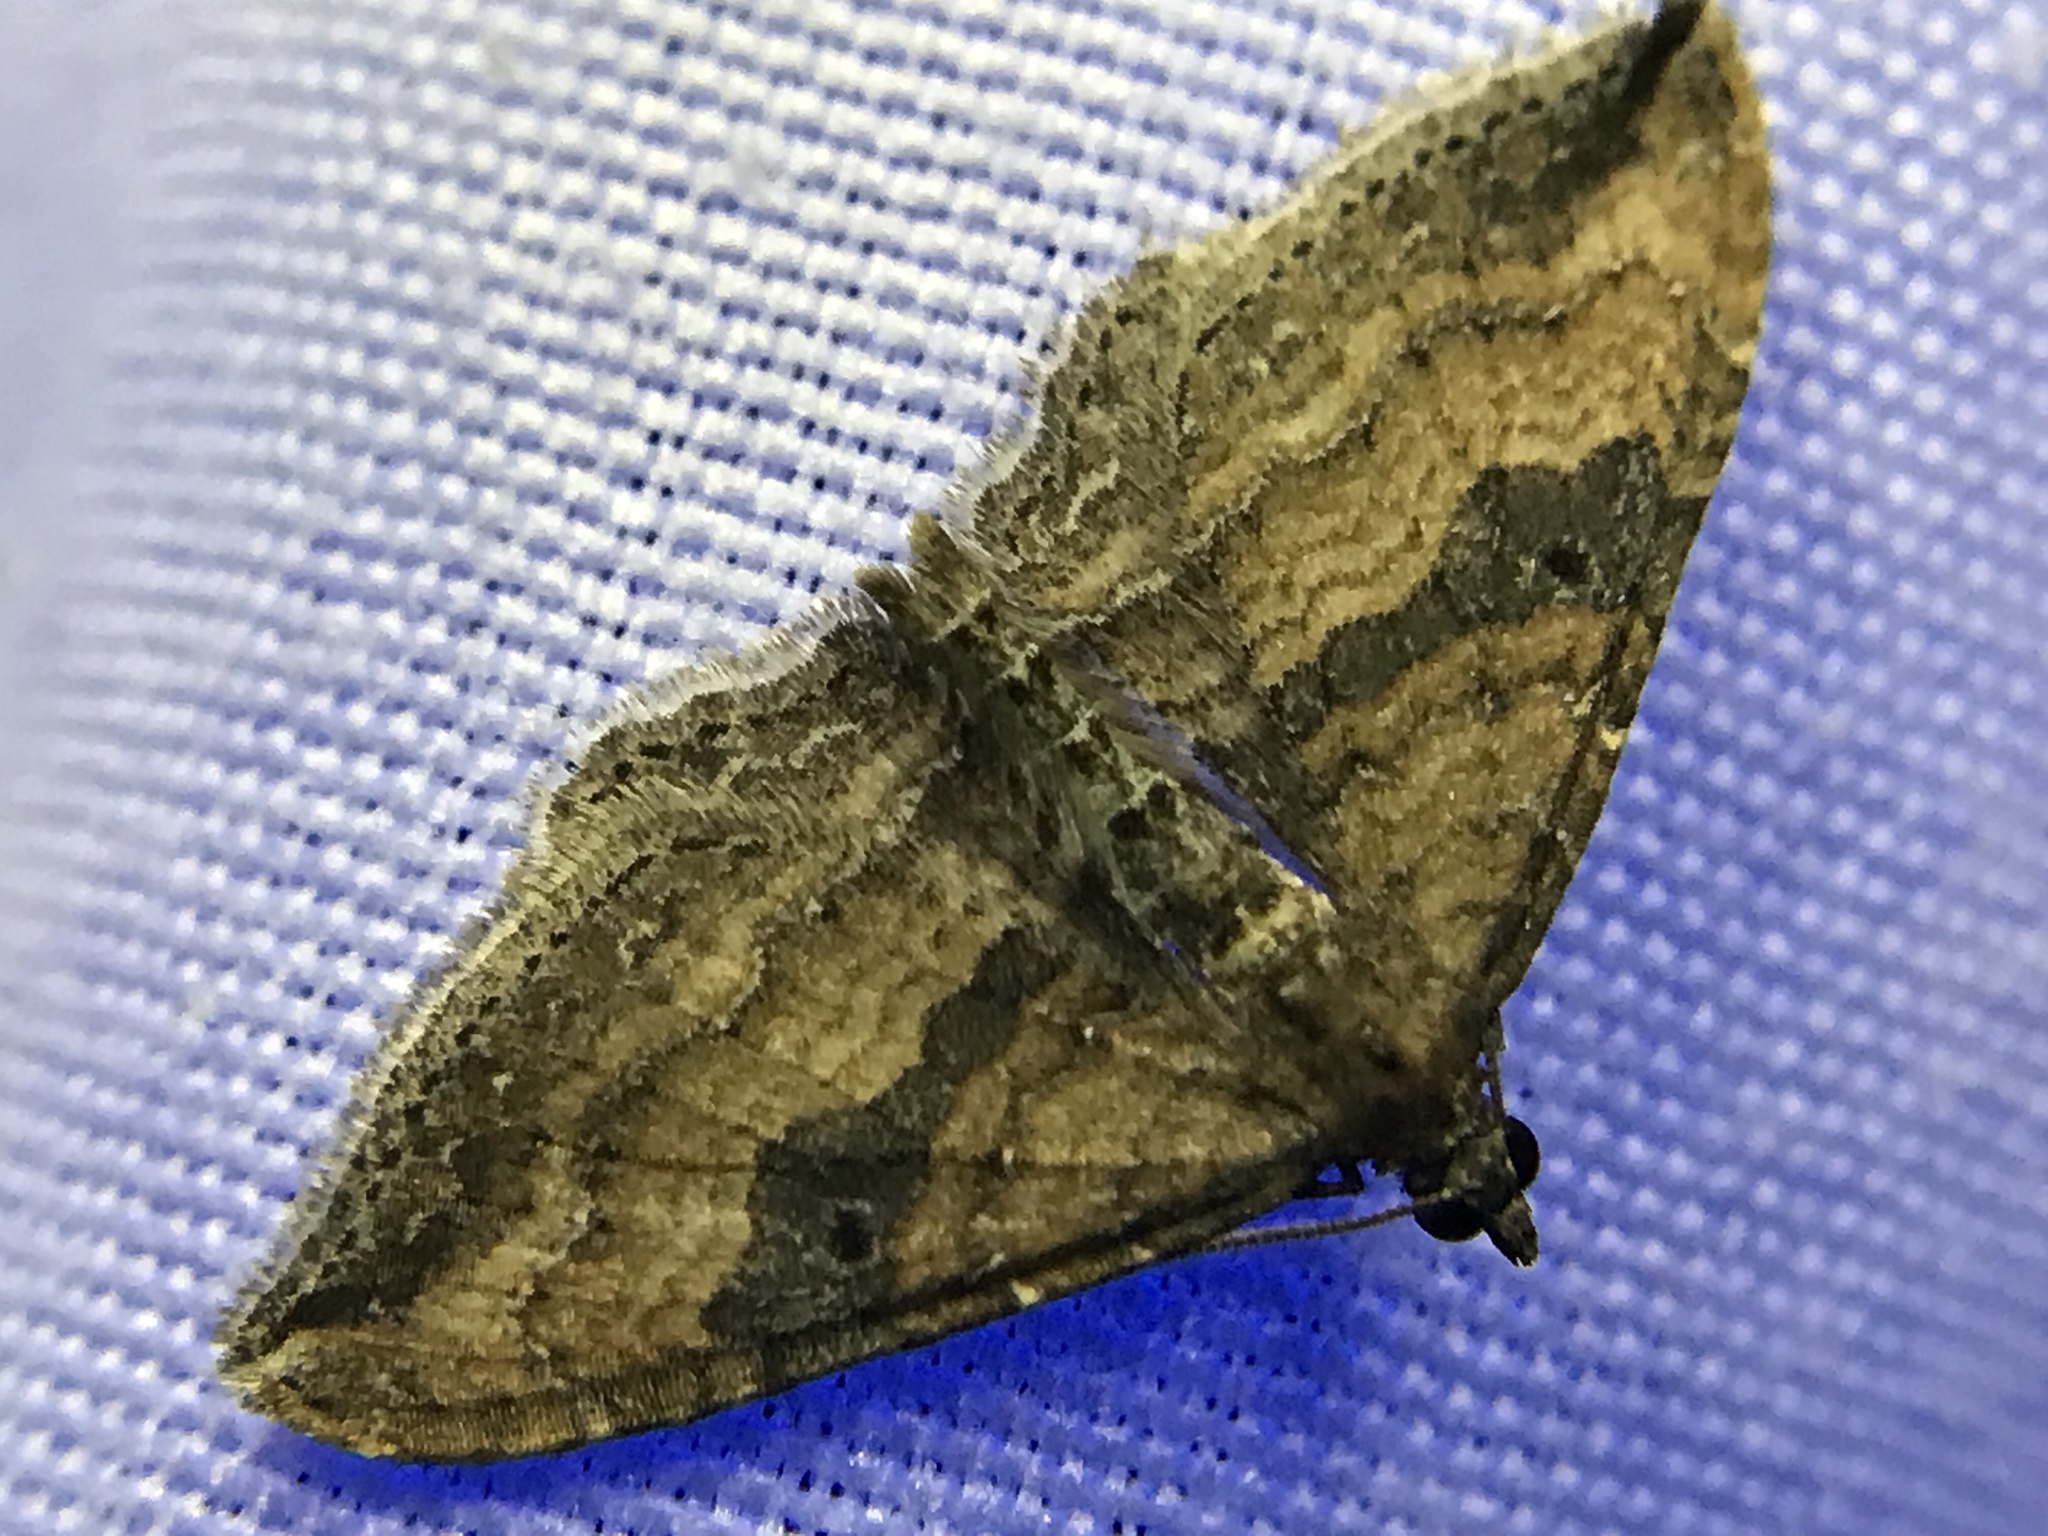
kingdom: Animalia
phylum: Arthropoda
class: Insecta
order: Lepidoptera
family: Geometridae
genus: Orthonama
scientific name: Orthonama obstipata
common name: The gem
